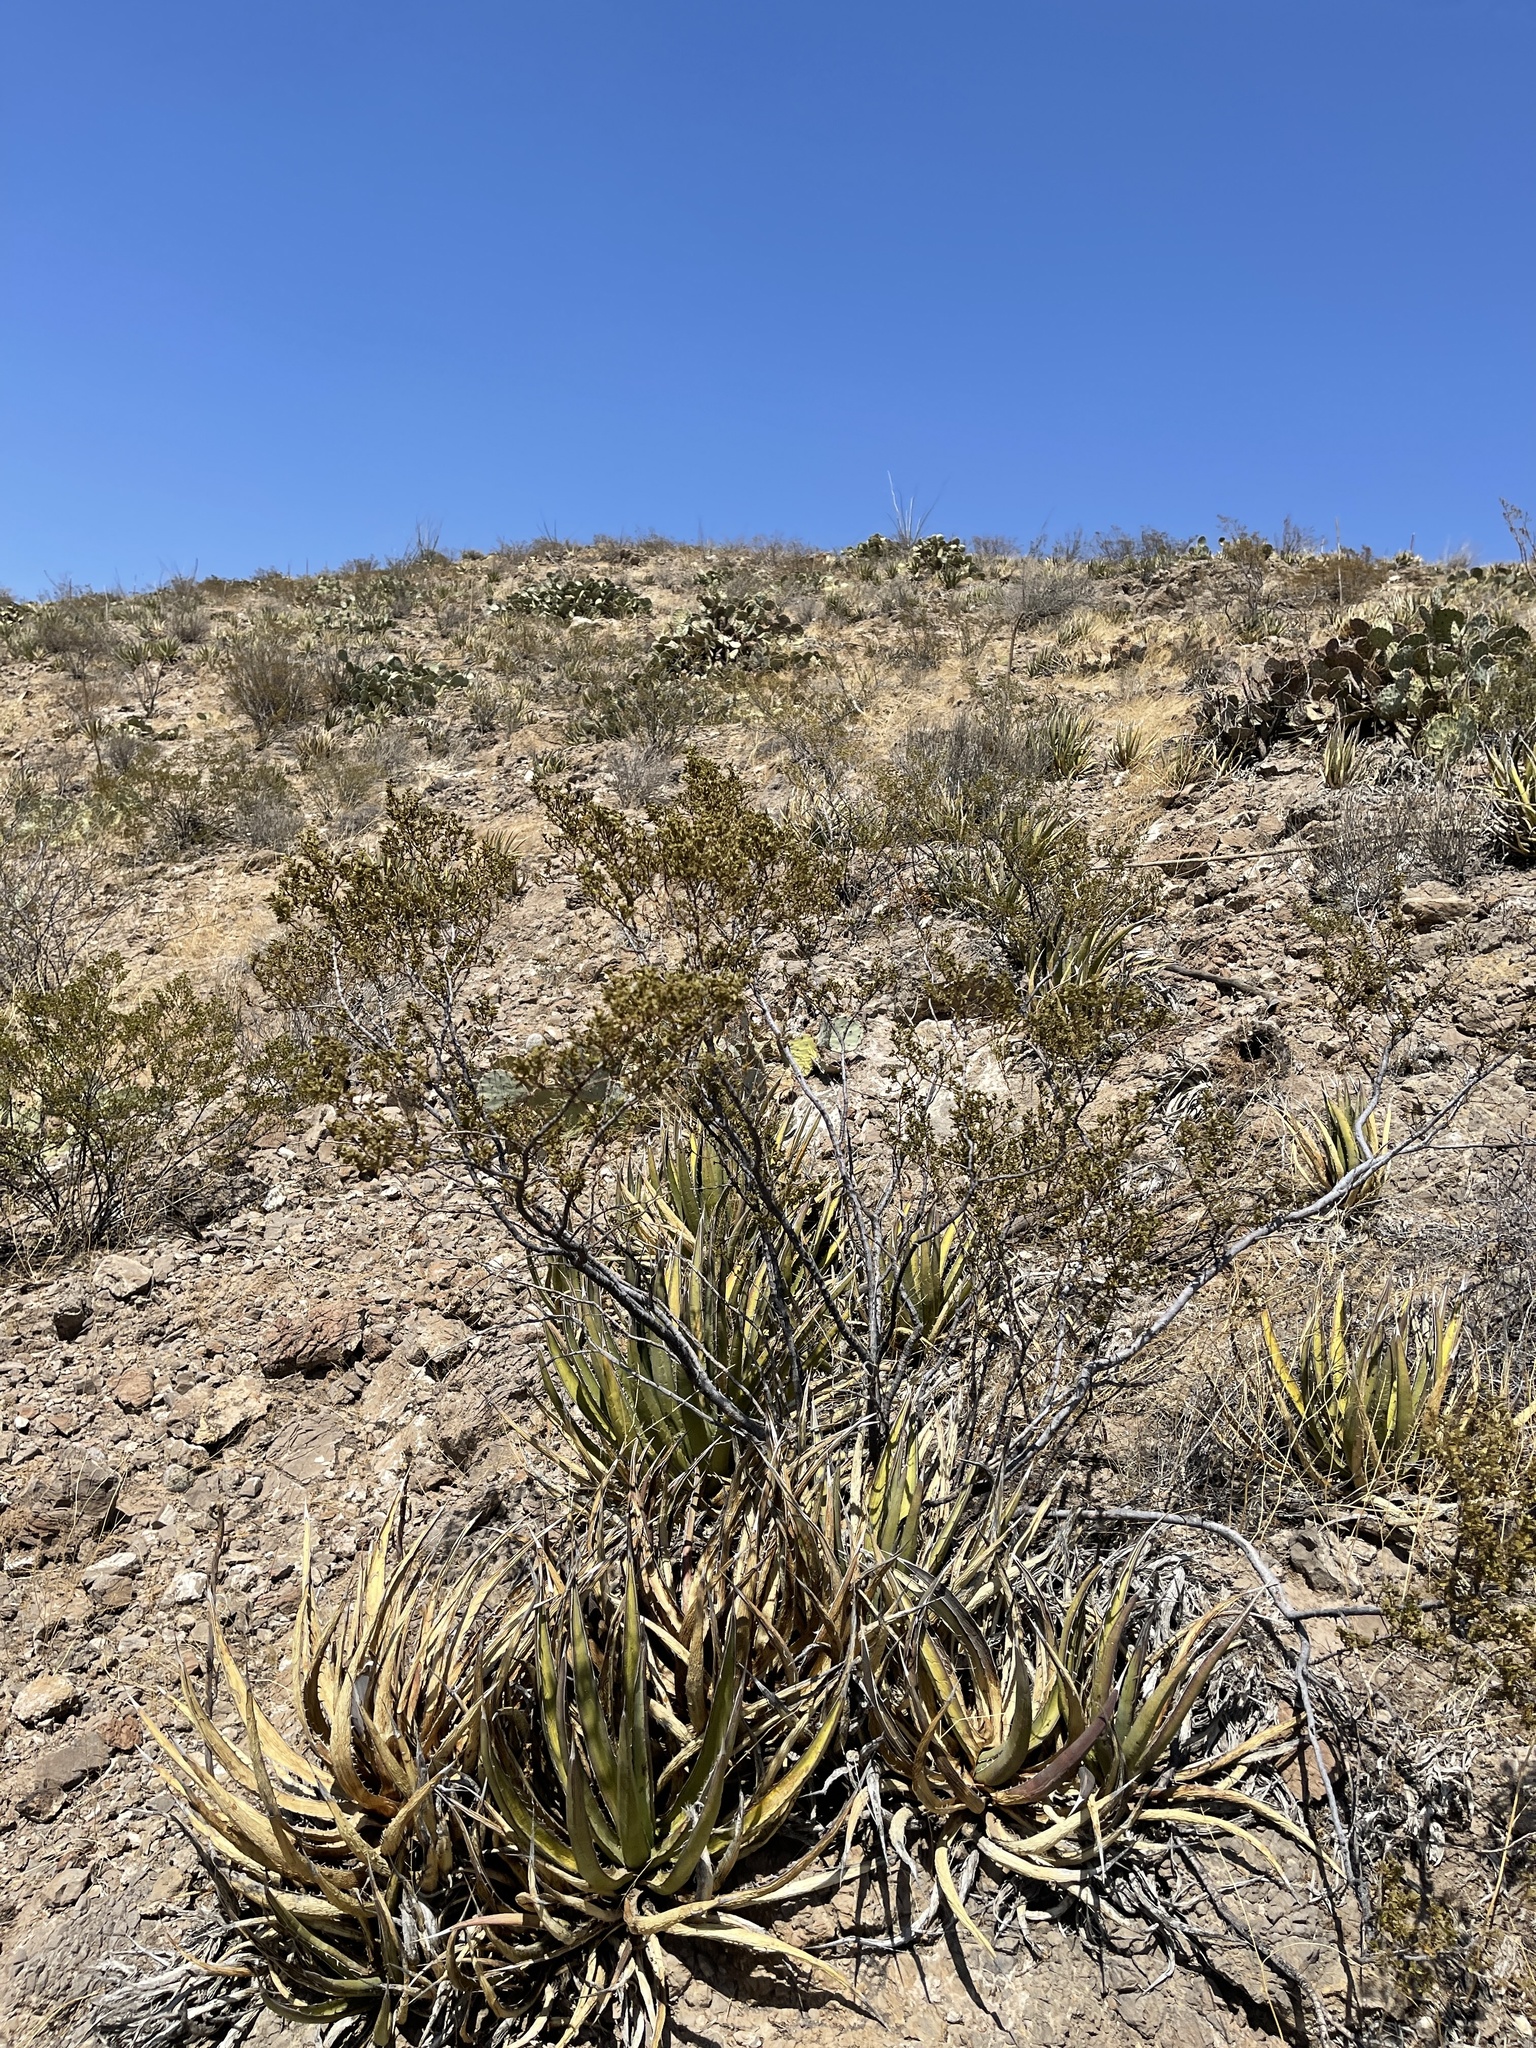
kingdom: Plantae
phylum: Tracheophyta
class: Magnoliopsida
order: Zygophyllales
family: Zygophyllaceae
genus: Larrea
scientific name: Larrea tridentata
